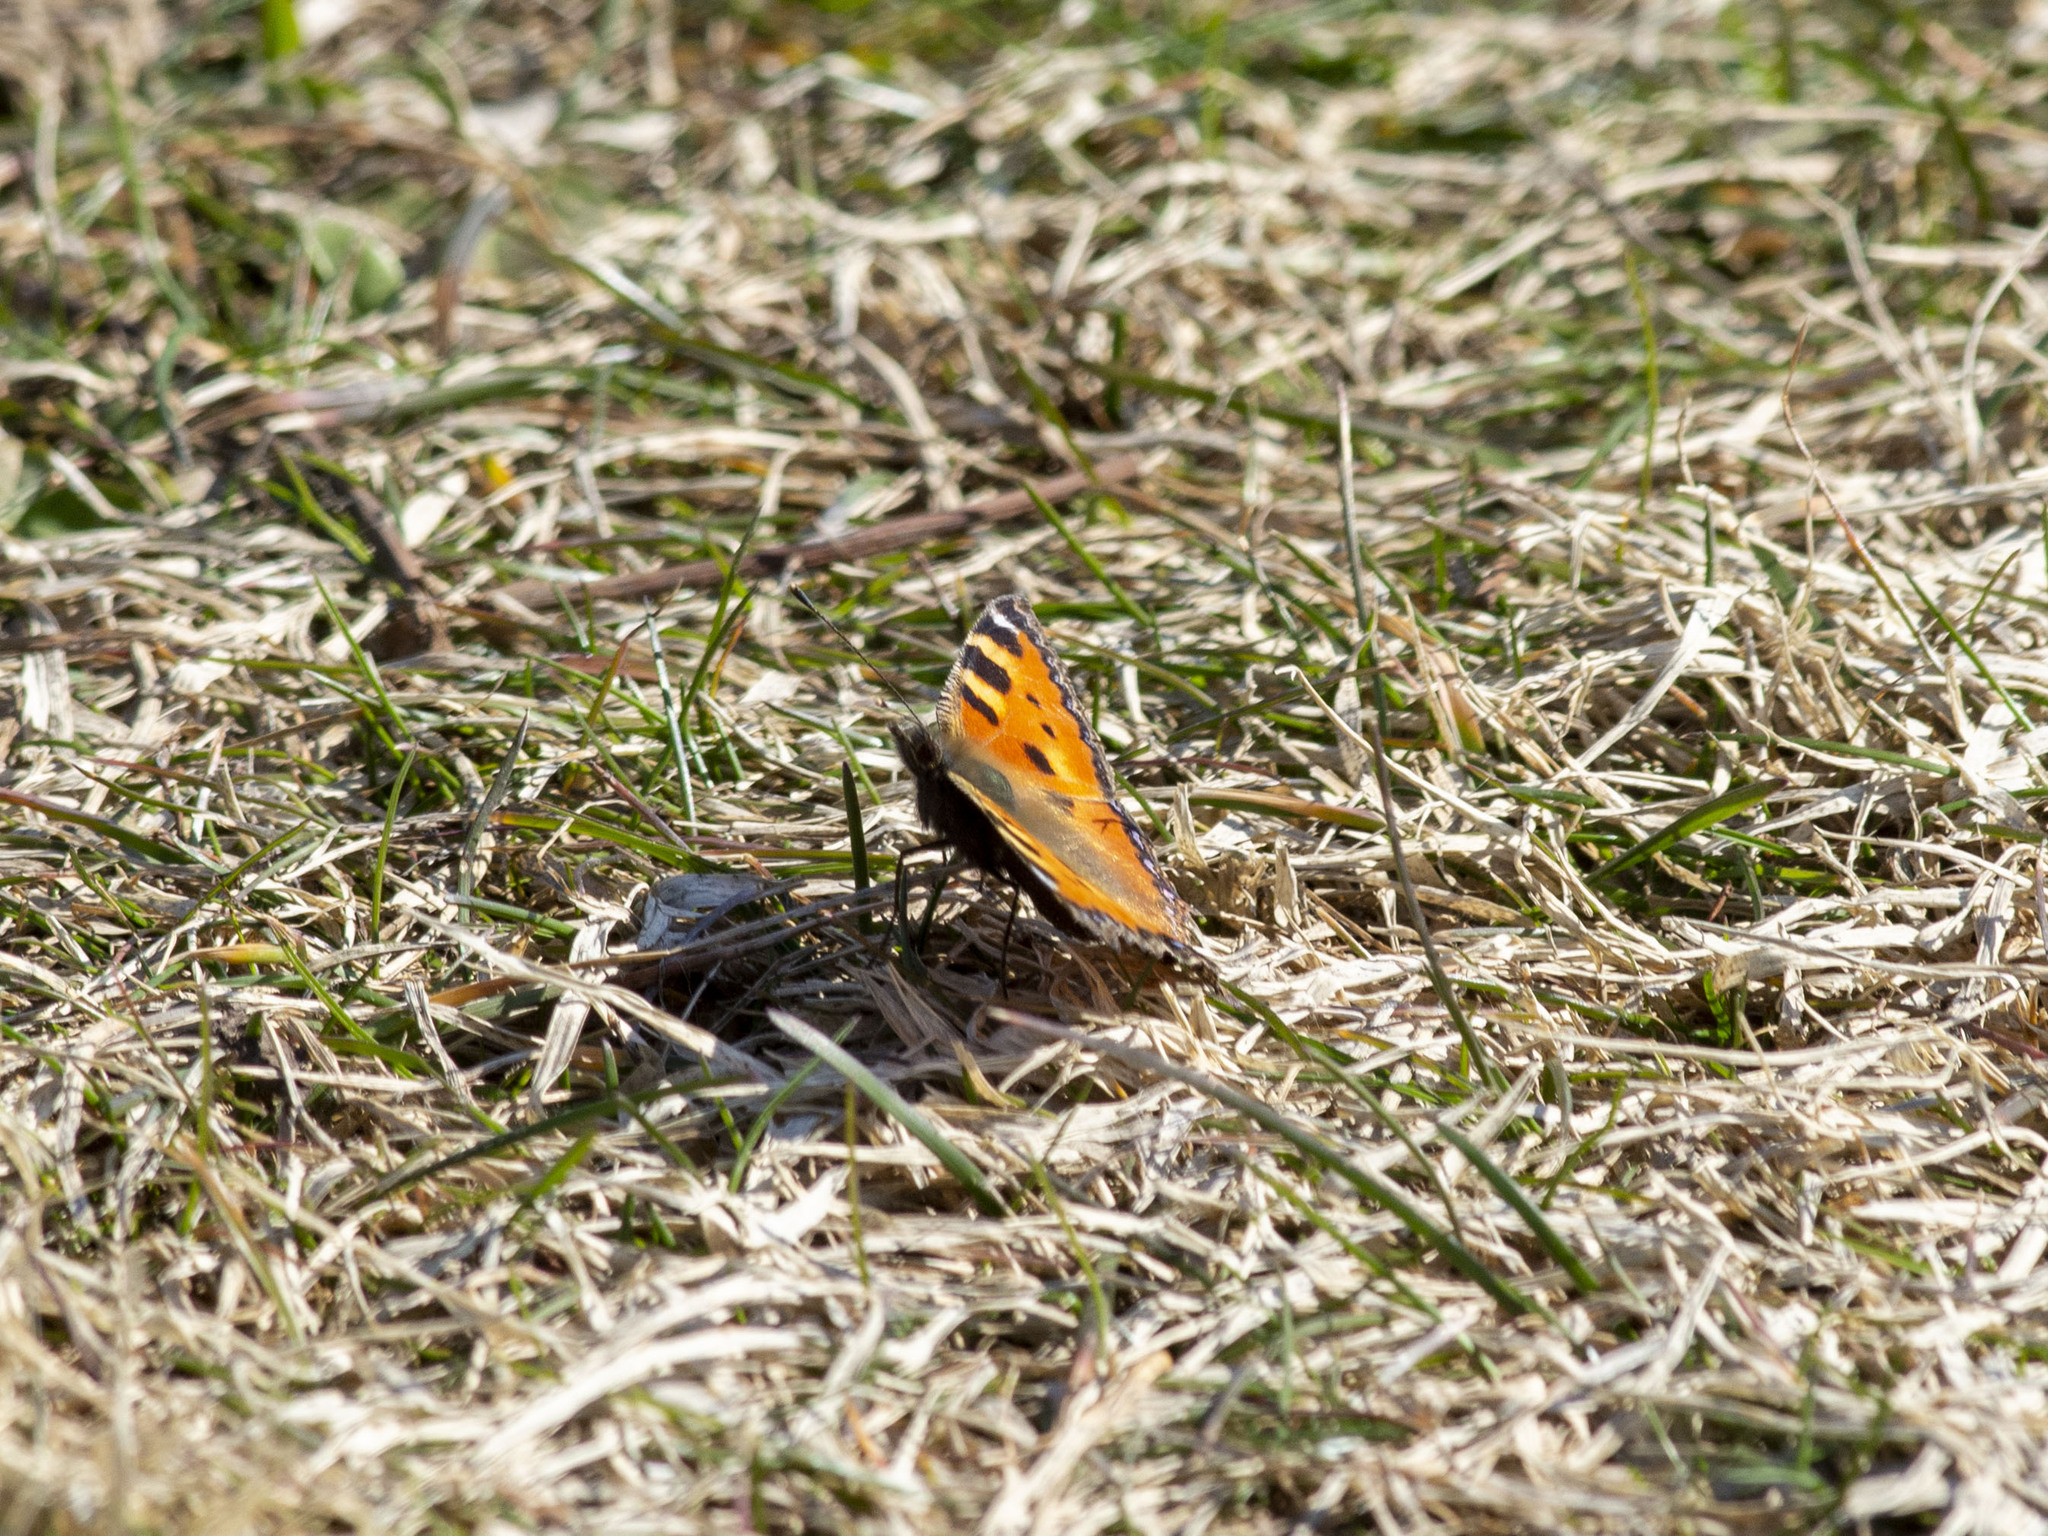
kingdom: Animalia
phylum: Arthropoda
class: Insecta
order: Lepidoptera
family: Nymphalidae
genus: Aglais
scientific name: Aglais urticae
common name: Small tortoiseshell
